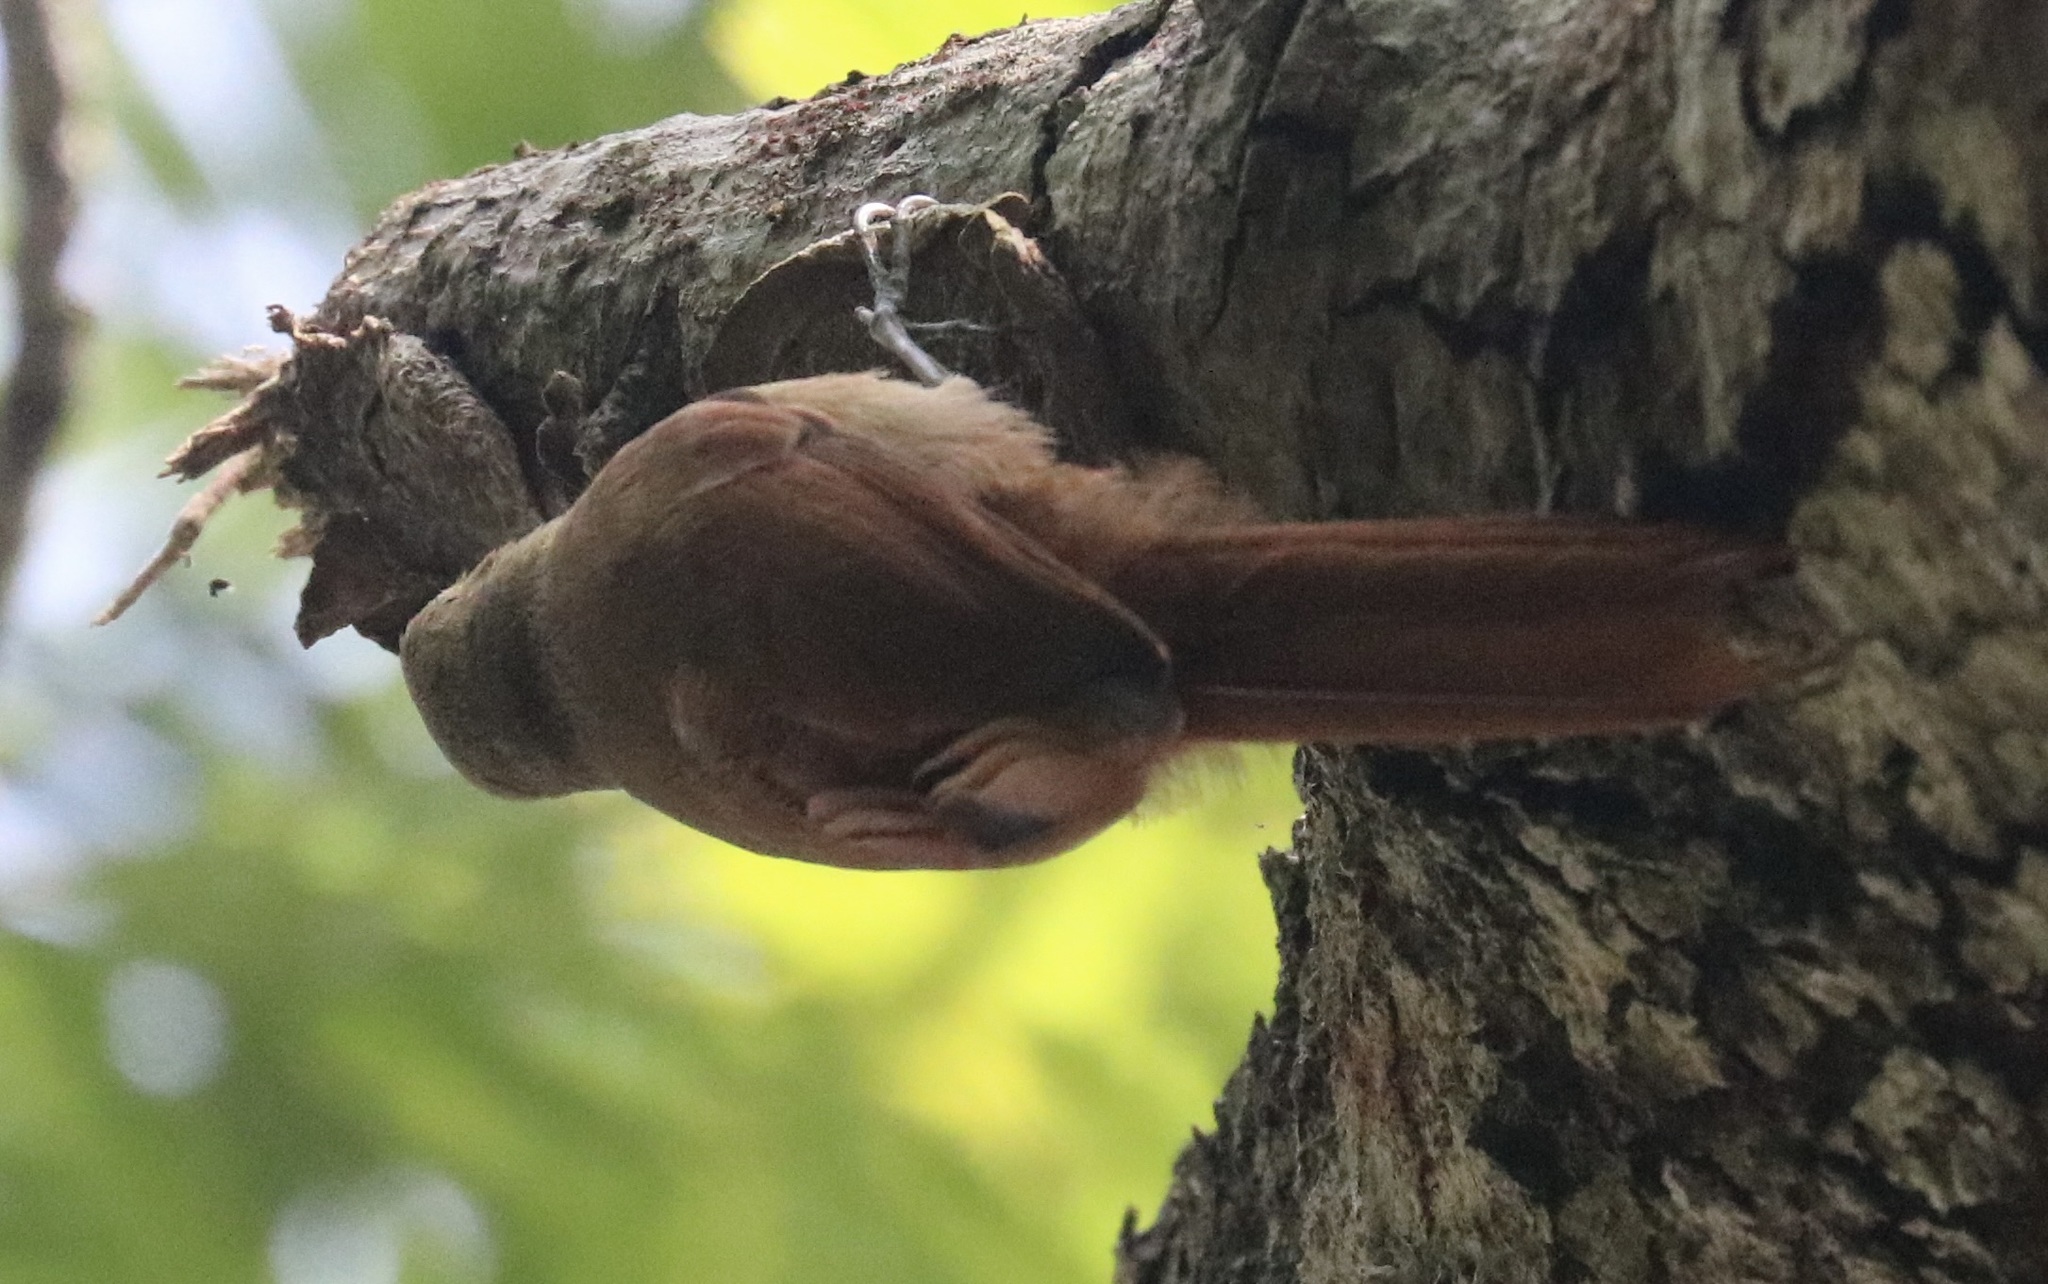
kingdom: Animalia
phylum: Chordata
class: Aves
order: Passeriformes
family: Furnariidae
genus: Sittasomus
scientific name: Sittasomus griseicapillus
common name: Olivaceous woodcreeper
